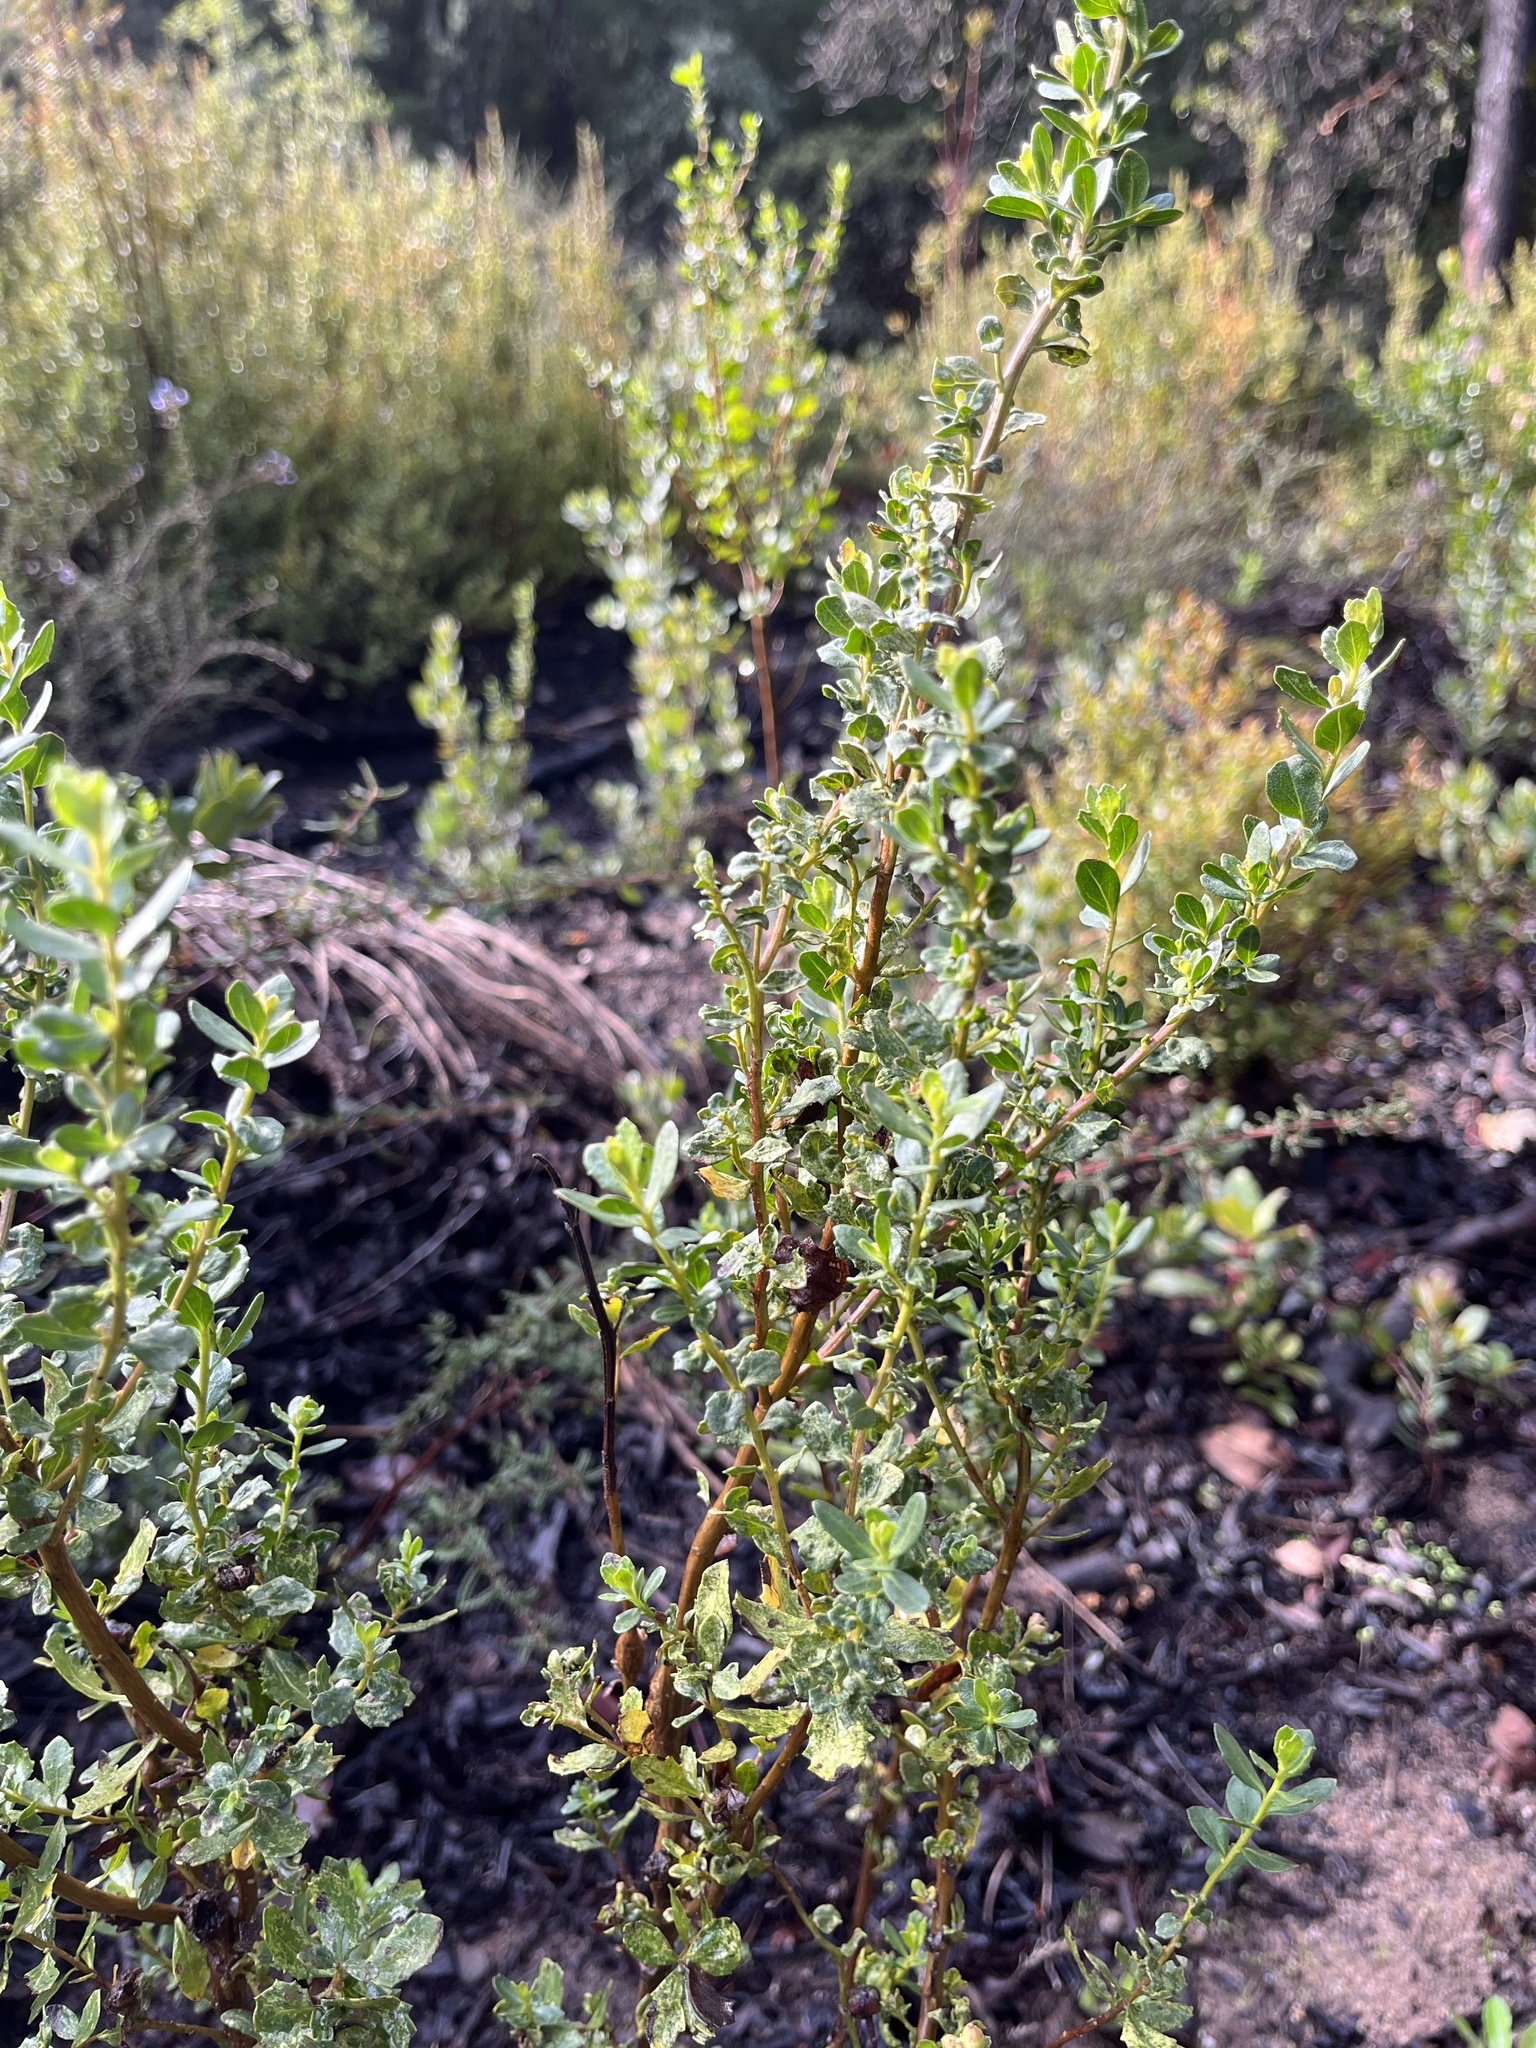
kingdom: Plantae
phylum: Tracheophyta
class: Magnoliopsida
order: Asterales
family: Asteraceae
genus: Baccharis
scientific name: Baccharis pilularis
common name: Coyotebrush
